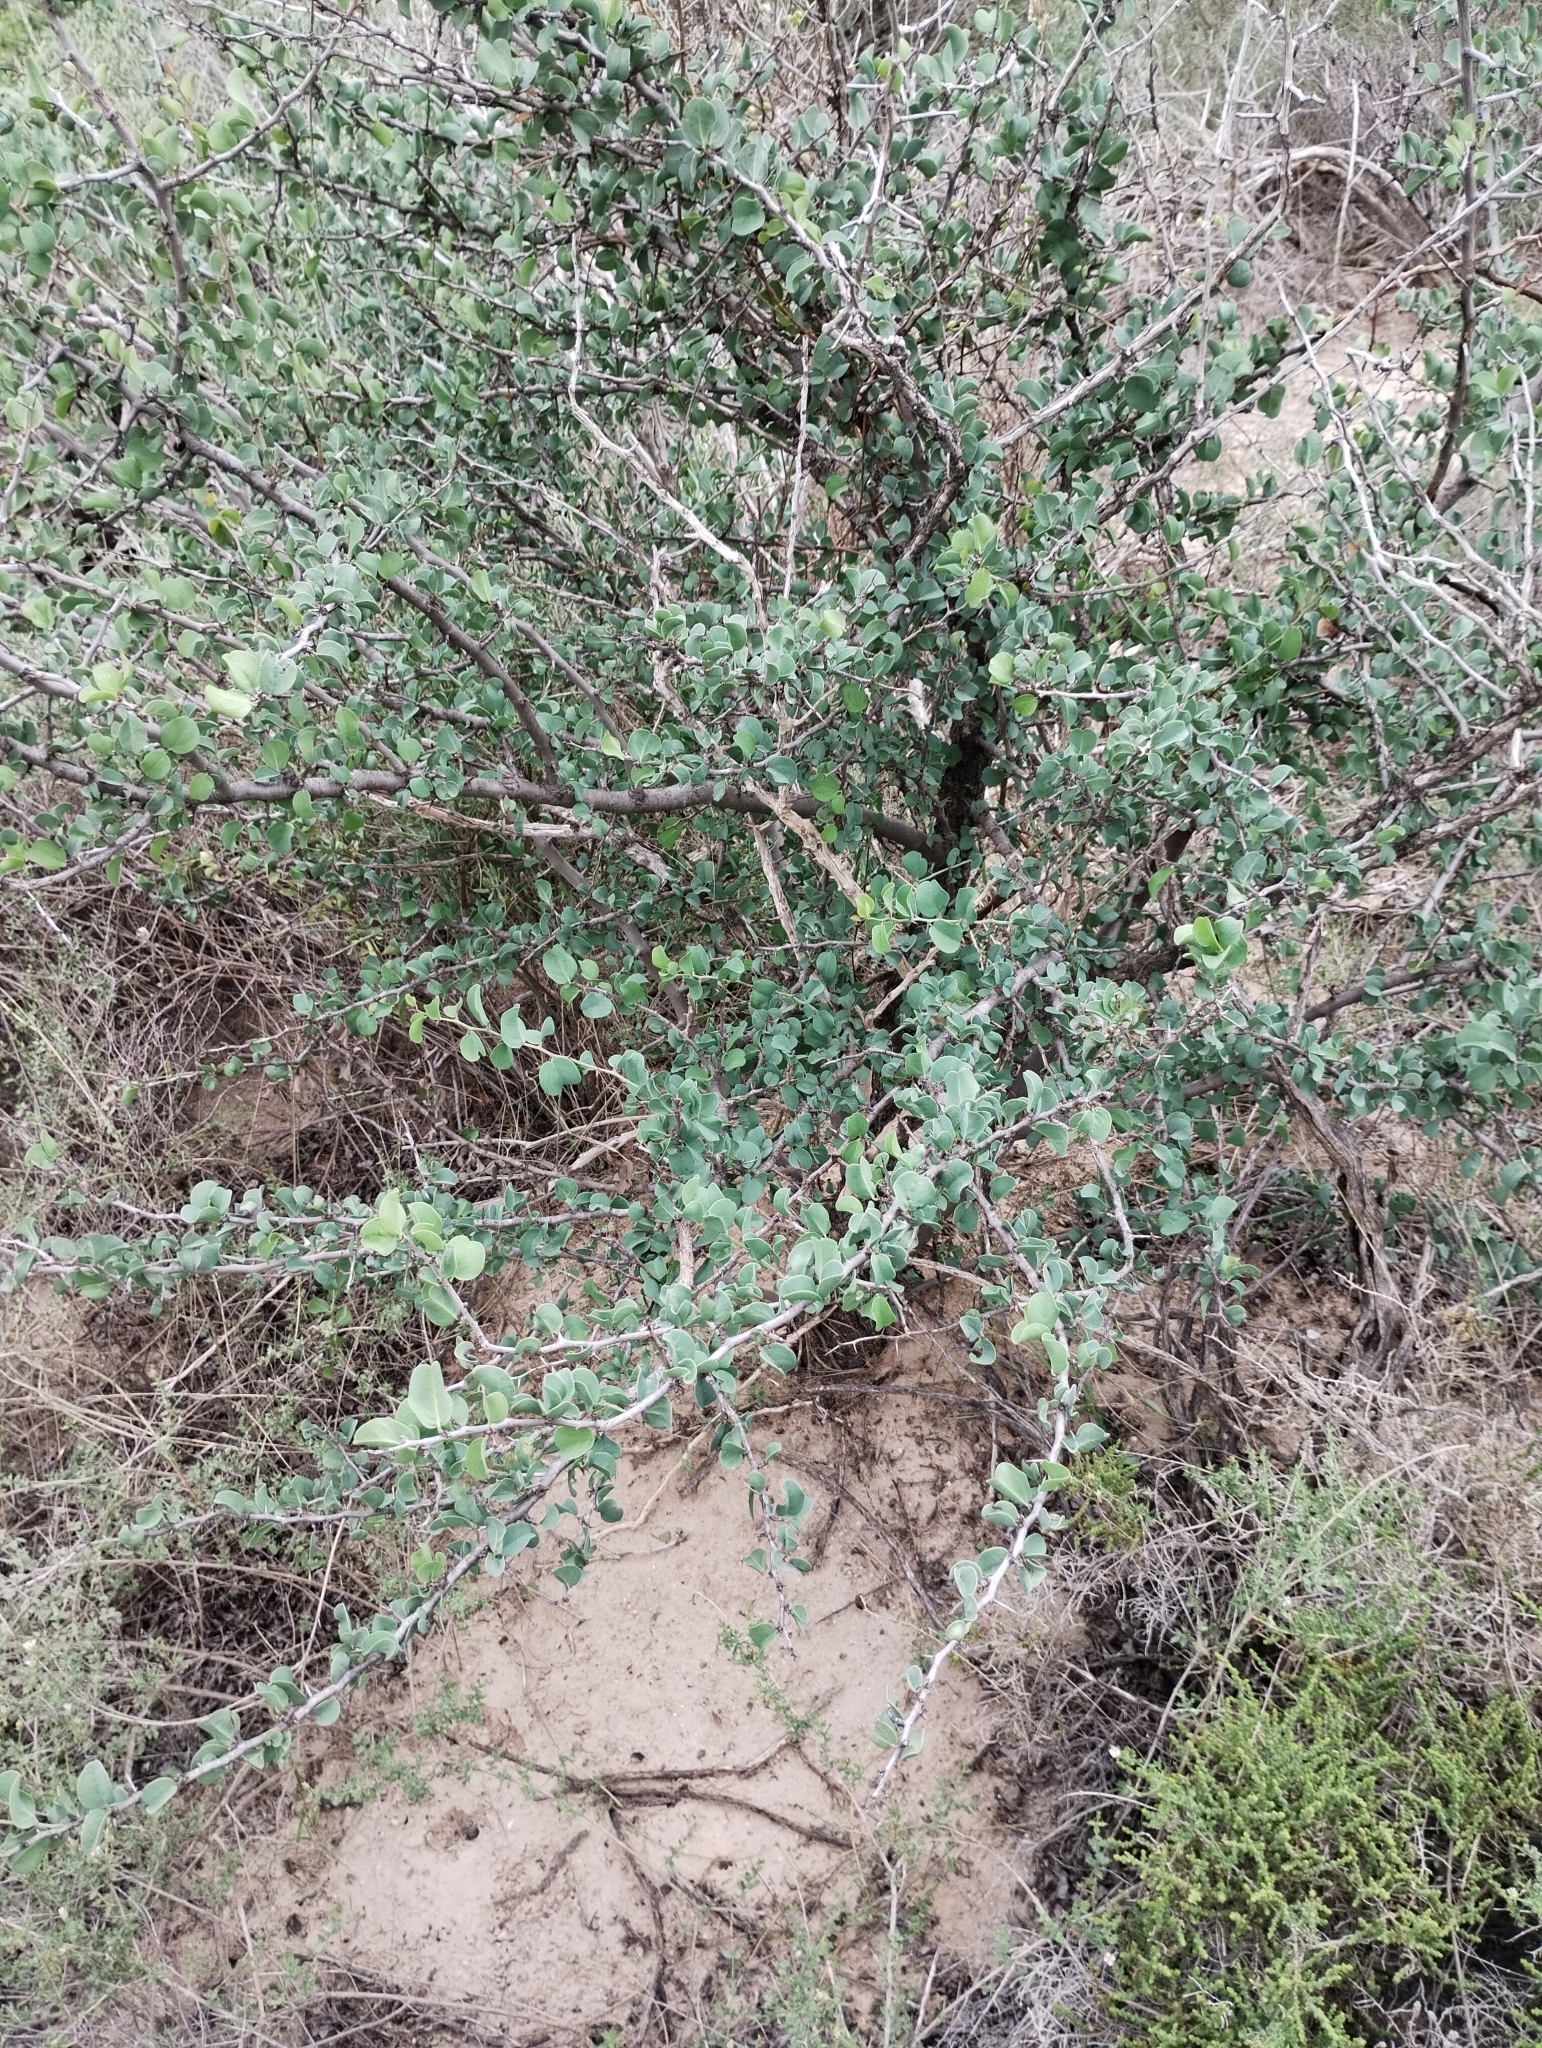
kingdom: Plantae
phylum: Tracheophyta
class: Magnoliopsida
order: Santalales
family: Ximeniaceae
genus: Ximenia
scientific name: Ximenia americana
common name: Tallowwood
